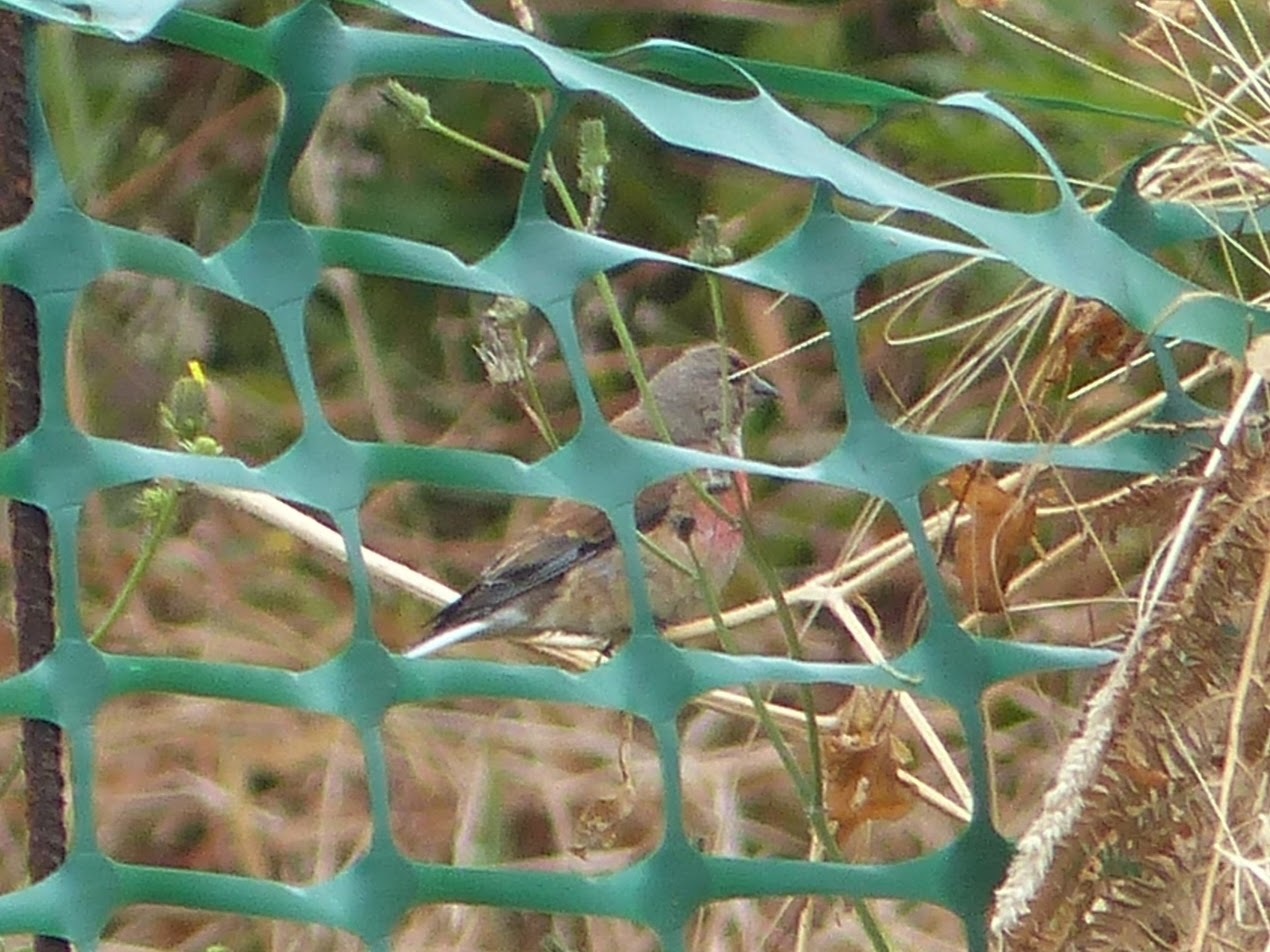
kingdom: Animalia
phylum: Chordata
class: Aves
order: Passeriformes
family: Fringillidae
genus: Linaria
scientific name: Linaria cannabina
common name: Common linnet
